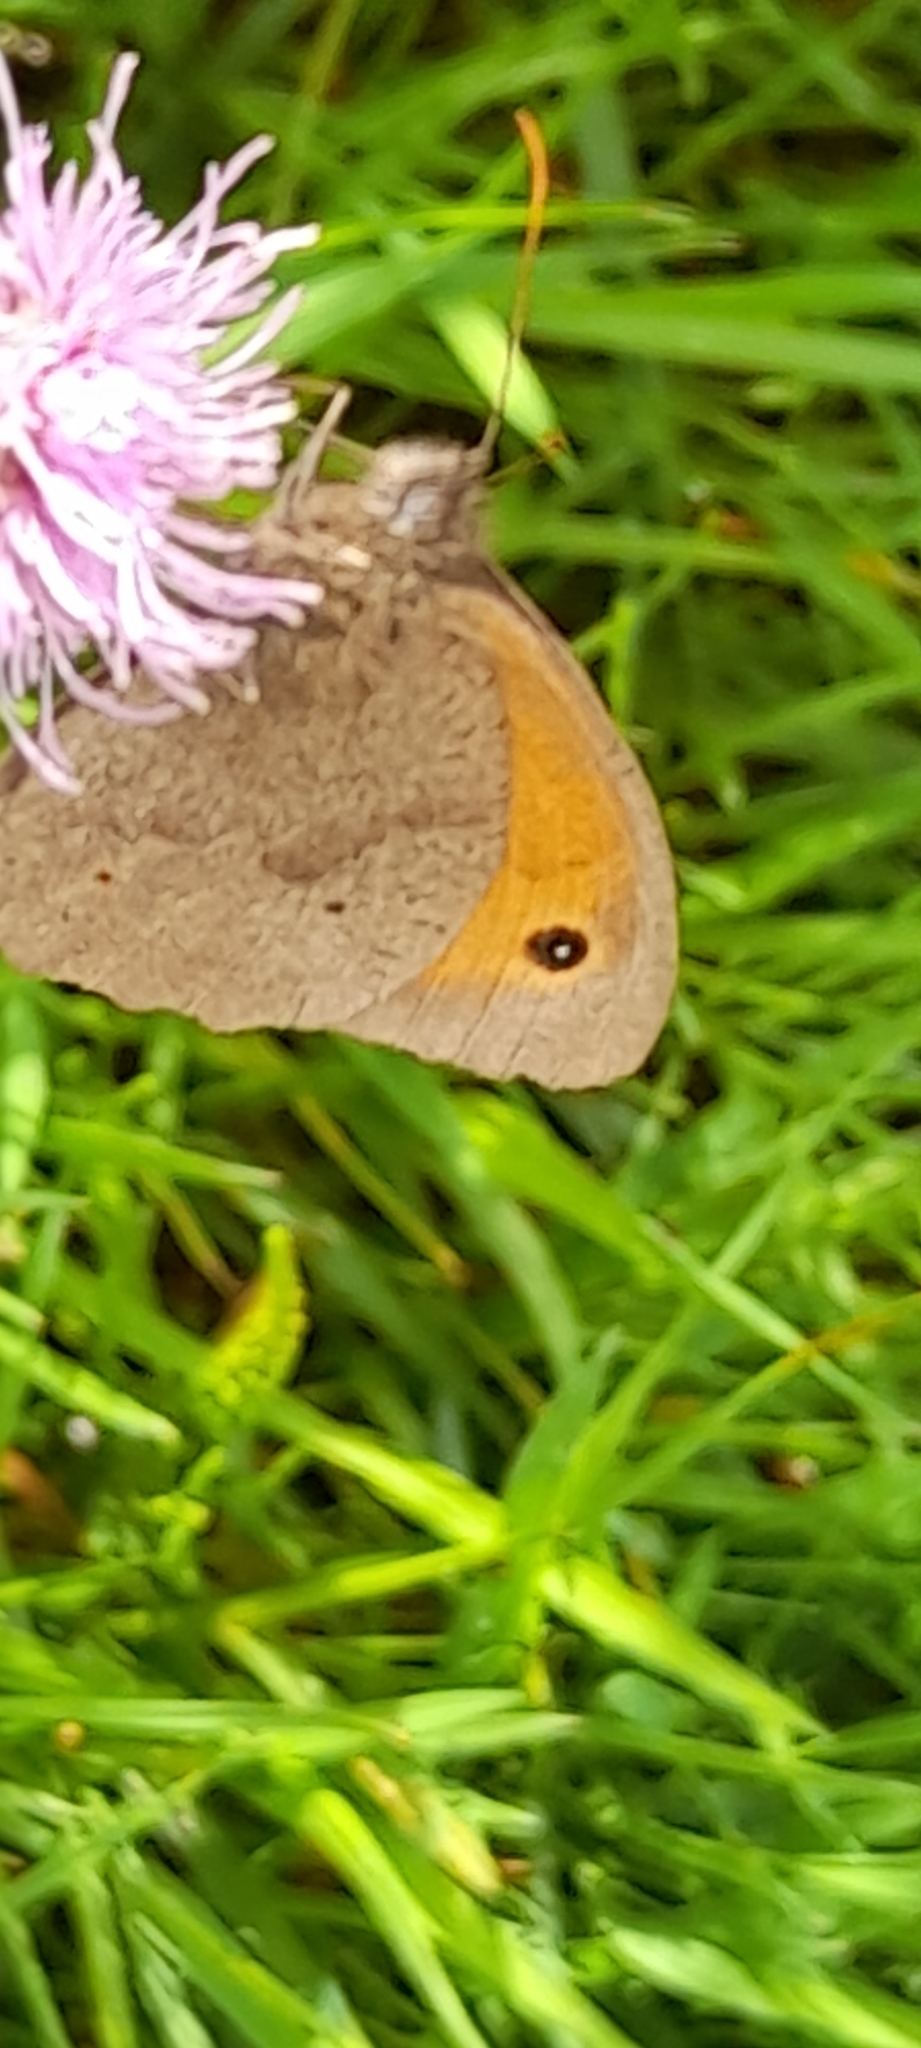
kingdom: Animalia
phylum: Arthropoda
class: Insecta
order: Lepidoptera
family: Nymphalidae
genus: Maniola
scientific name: Maniola jurtina
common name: Meadow brown
